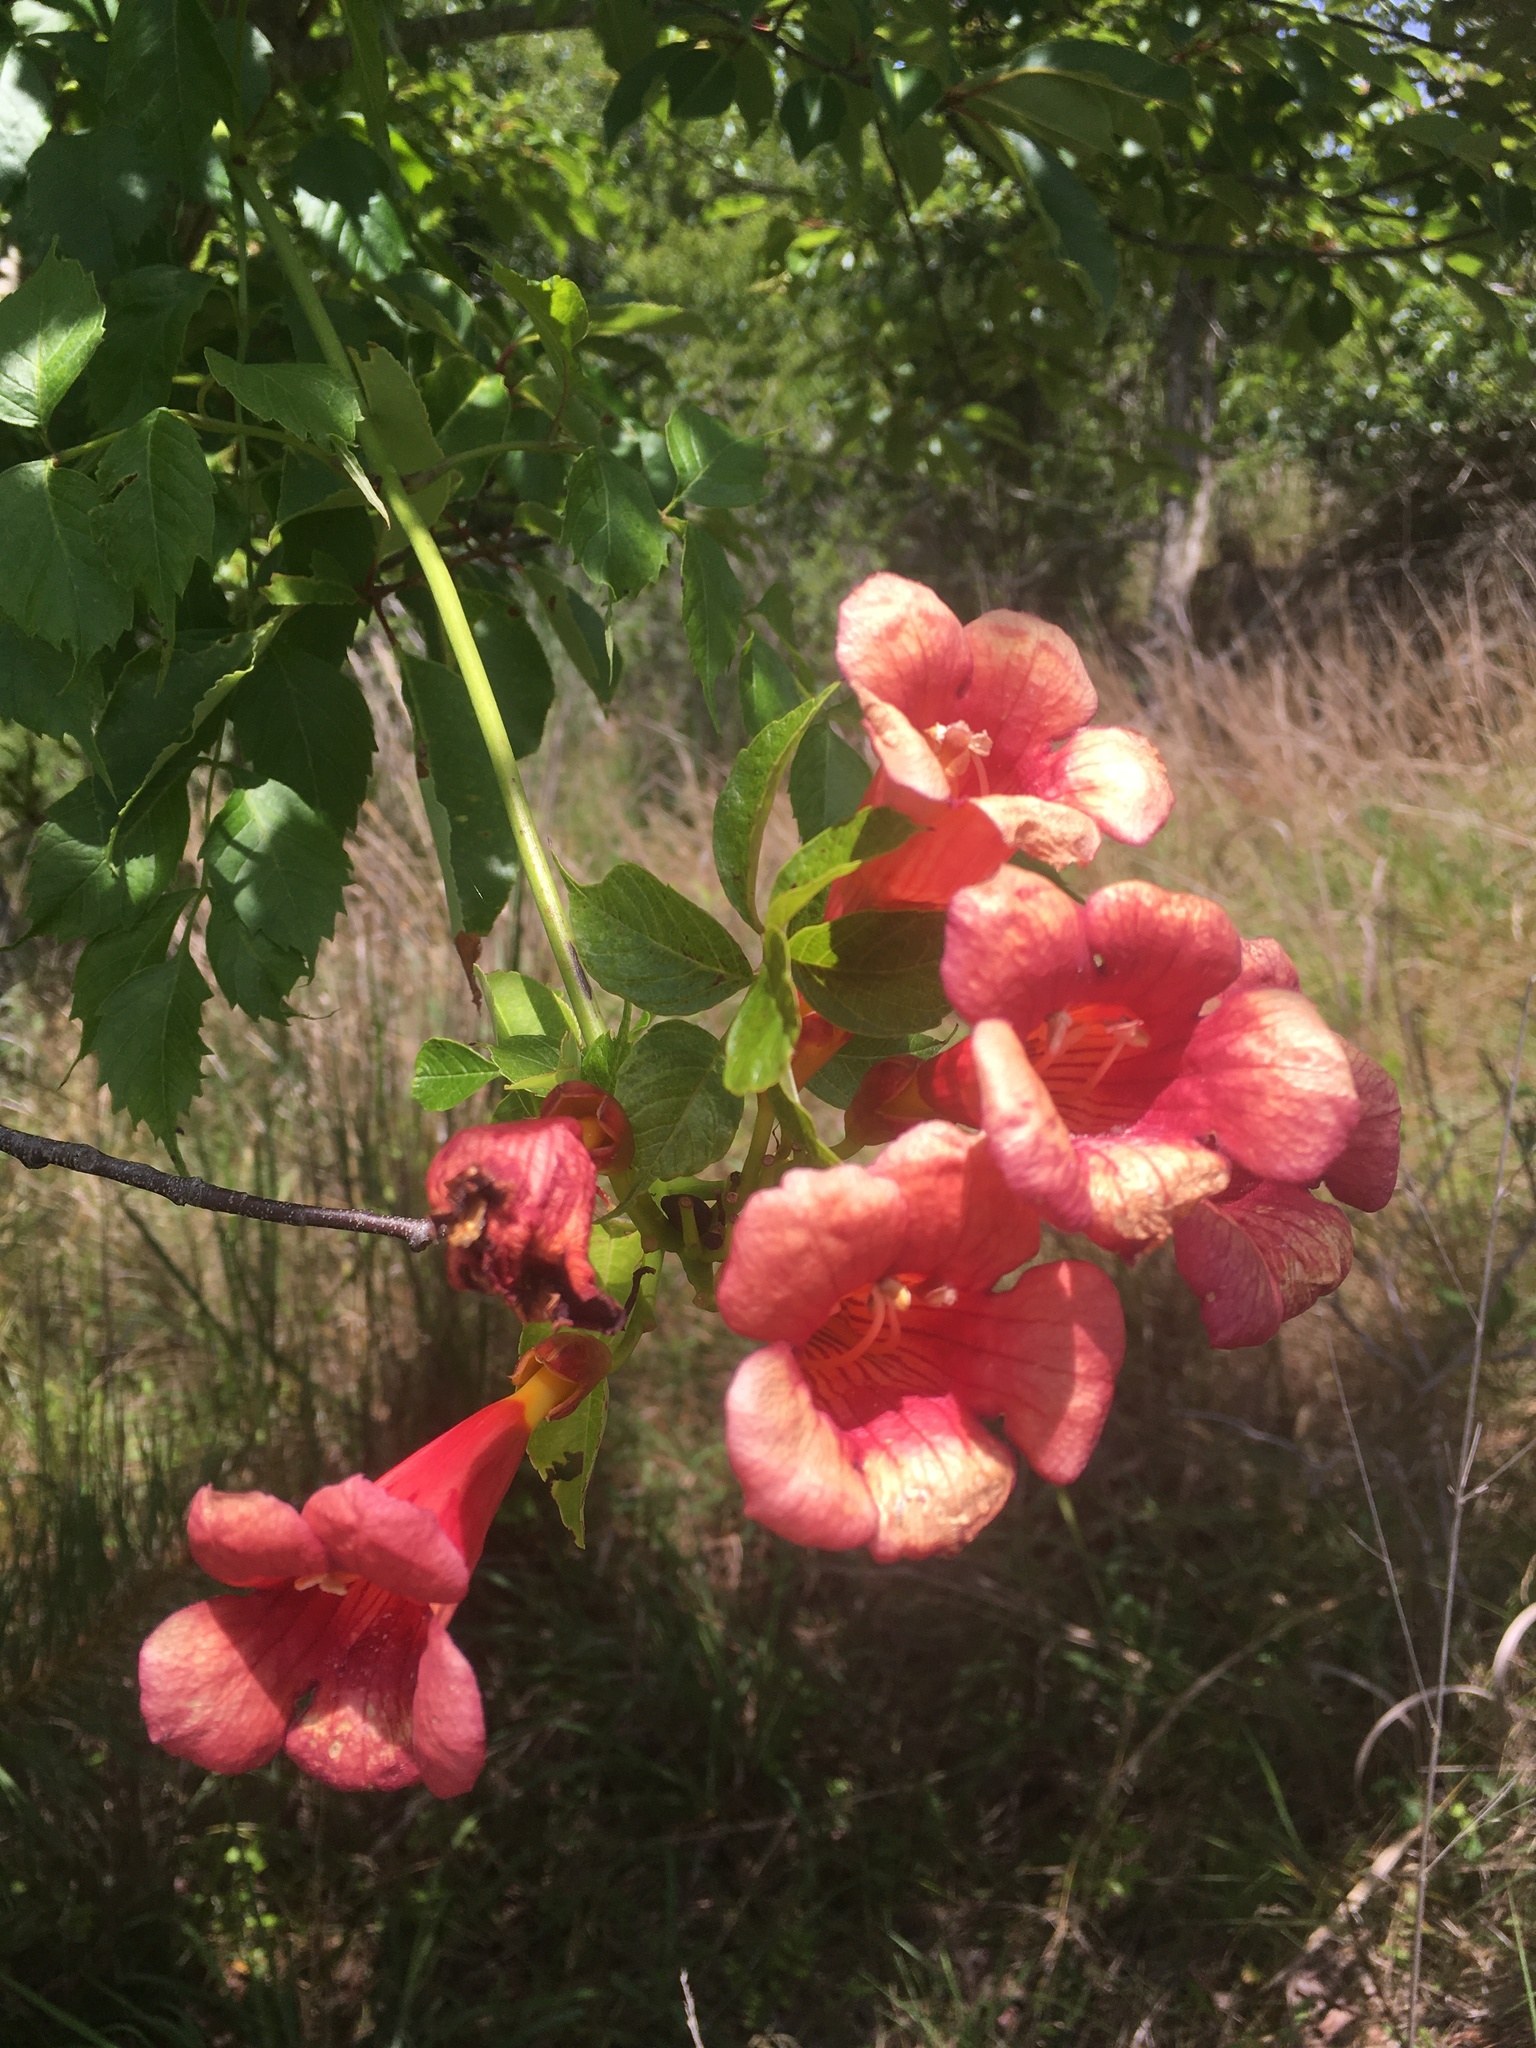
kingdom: Plantae
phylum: Tracheophyta
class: Magnoliopsida
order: Lamiales
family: Bignoniaceae
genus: Campsis
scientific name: Campsis radicans
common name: Trumpet-creeper
